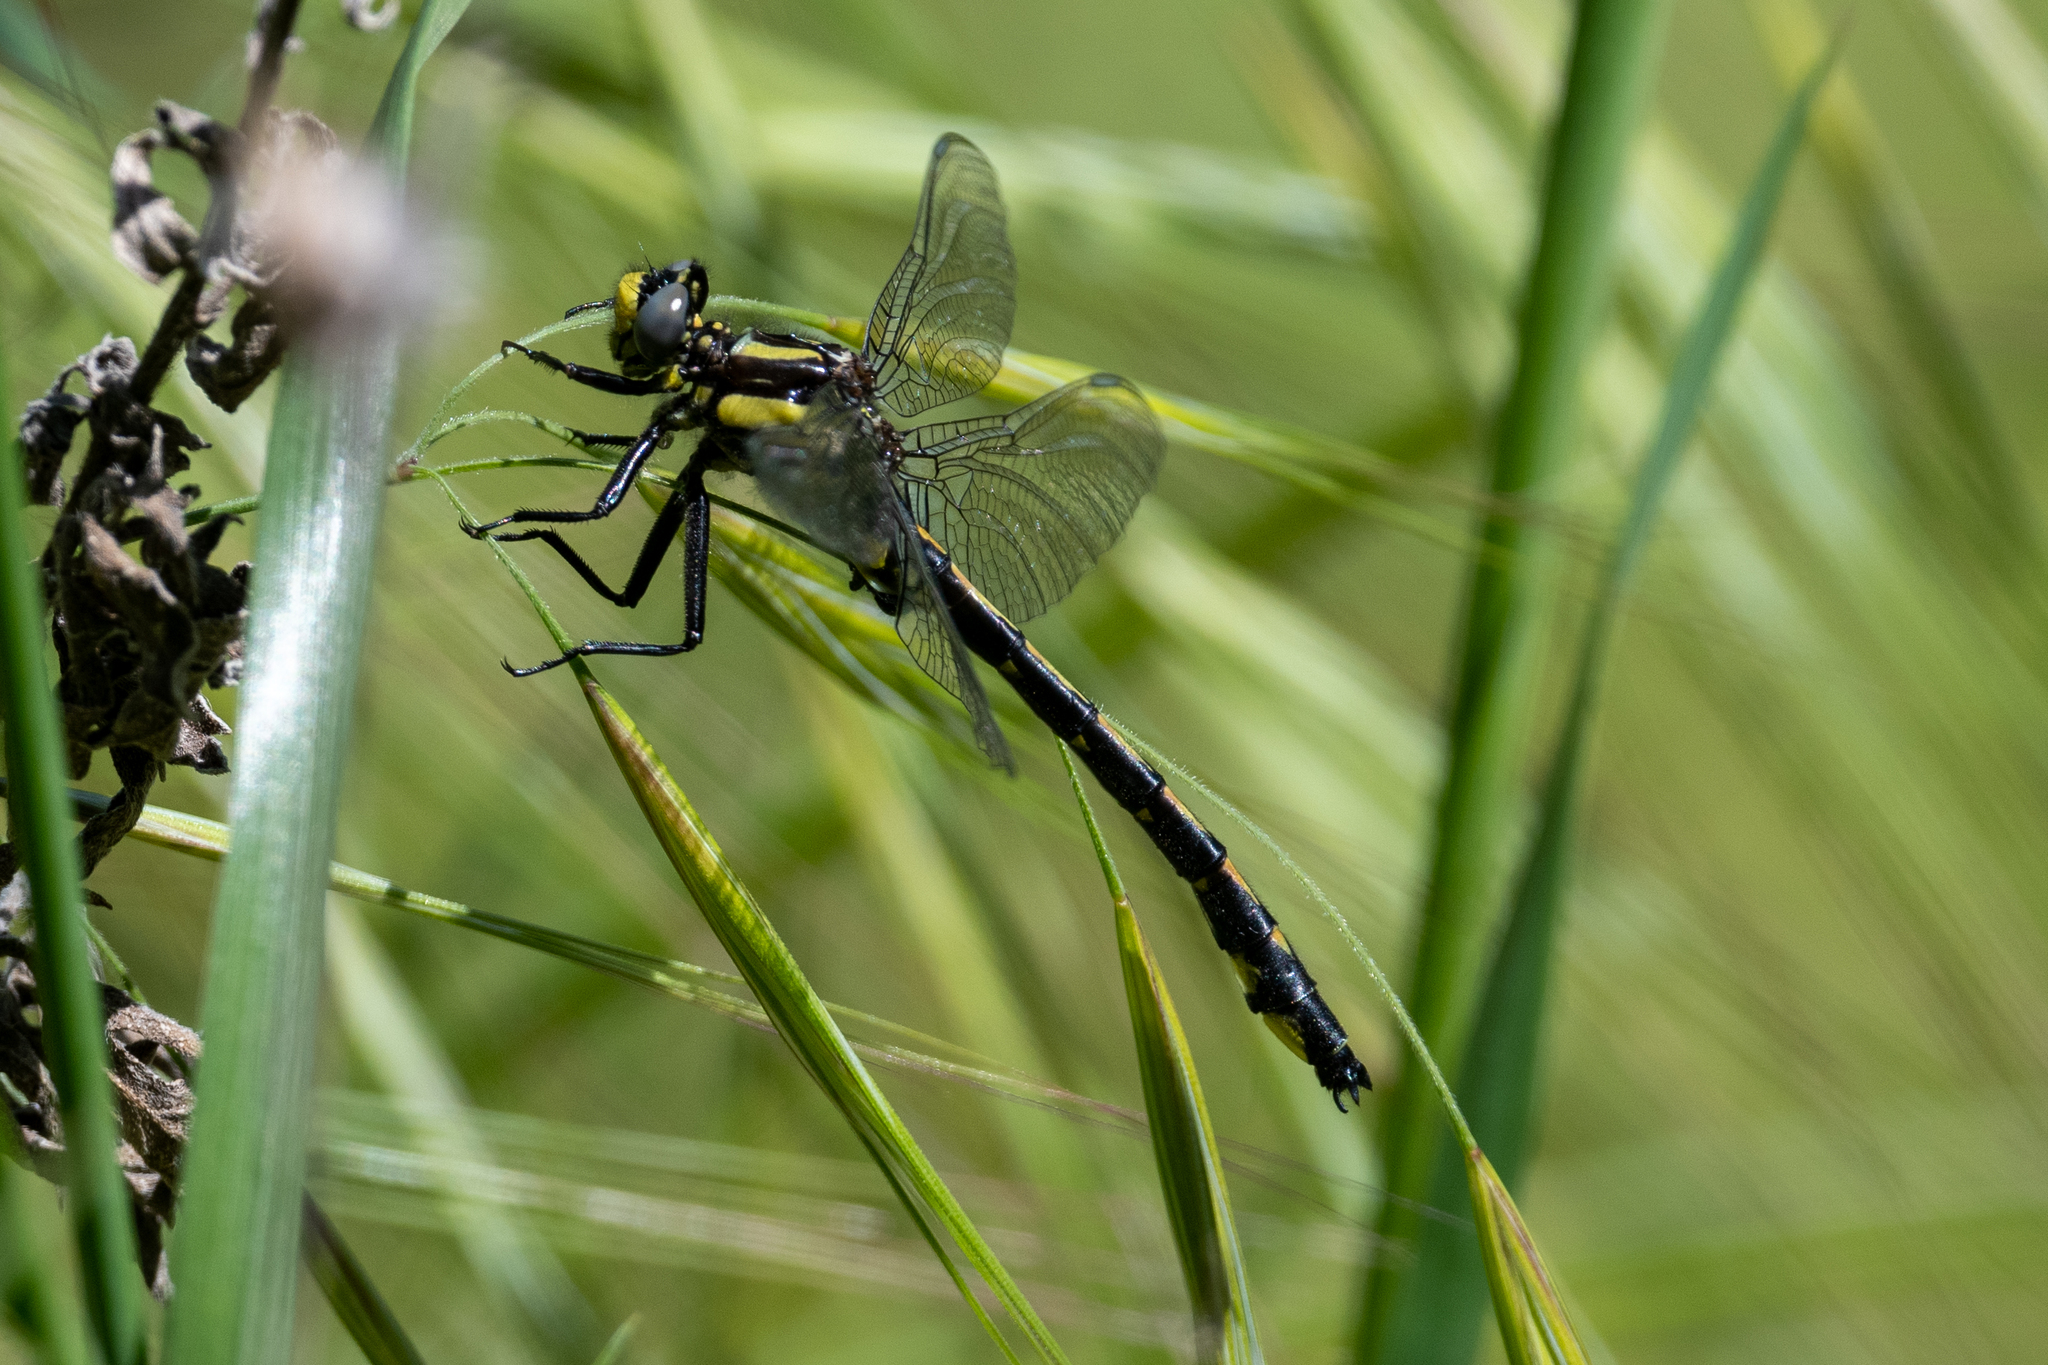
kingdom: Animalia
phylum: Arthropoda
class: Insecta
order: Odonata
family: Gomphidae
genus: Phanogomphus
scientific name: Phanogomphus kurilis
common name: Pacific clubtail
